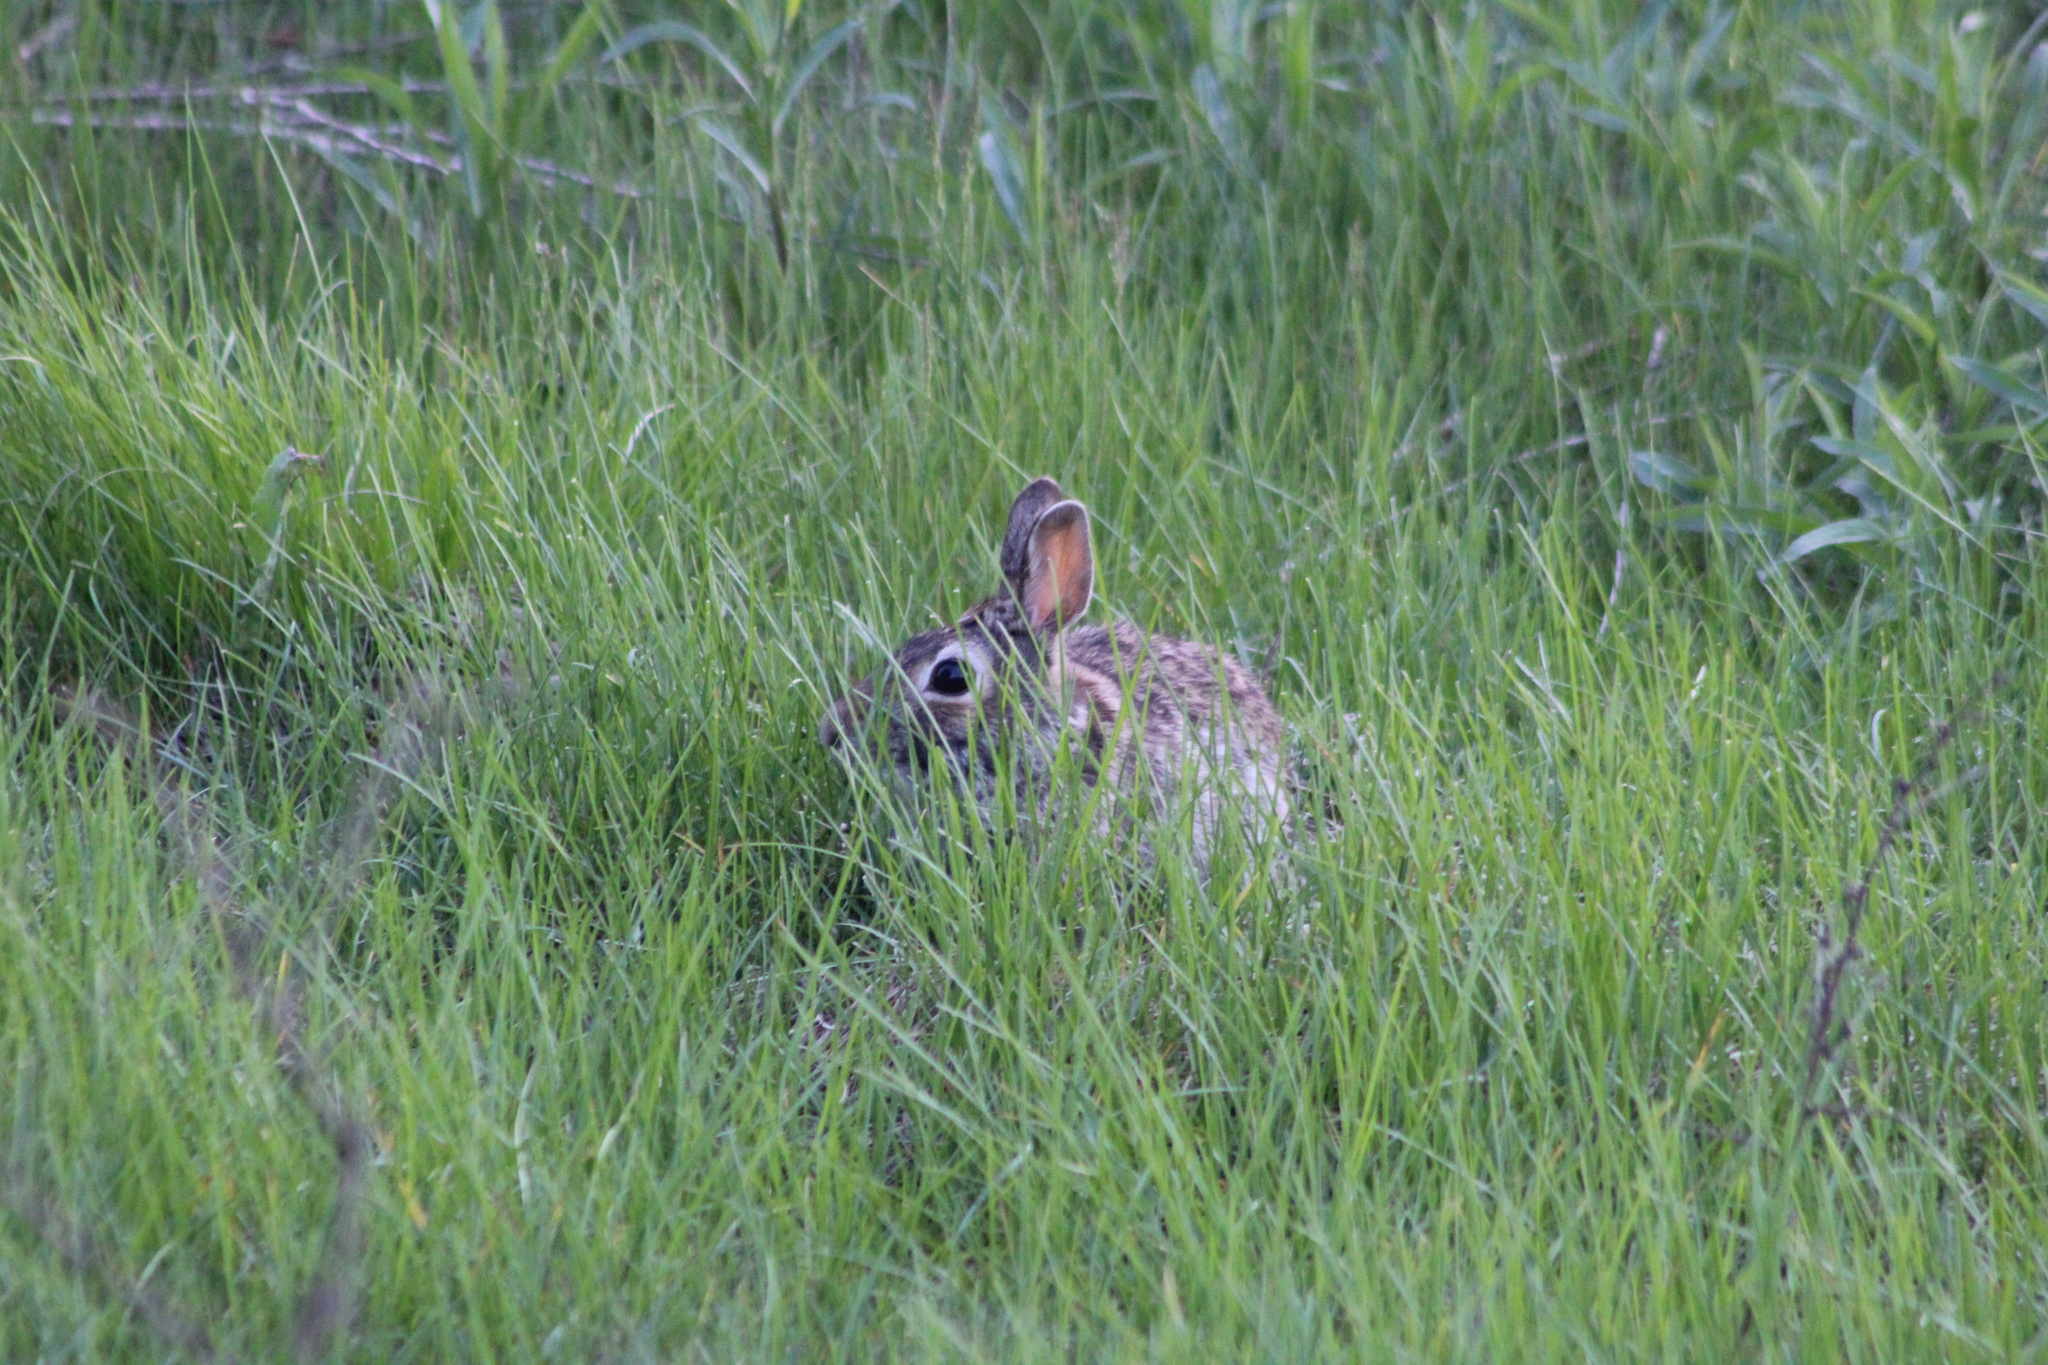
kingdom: Animalia
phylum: Chordata
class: Mammalia
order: Lagomorpha
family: Leporidae
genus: Sylvilagus
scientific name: Sylvilagus floridanus
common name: Eastern cottontail
